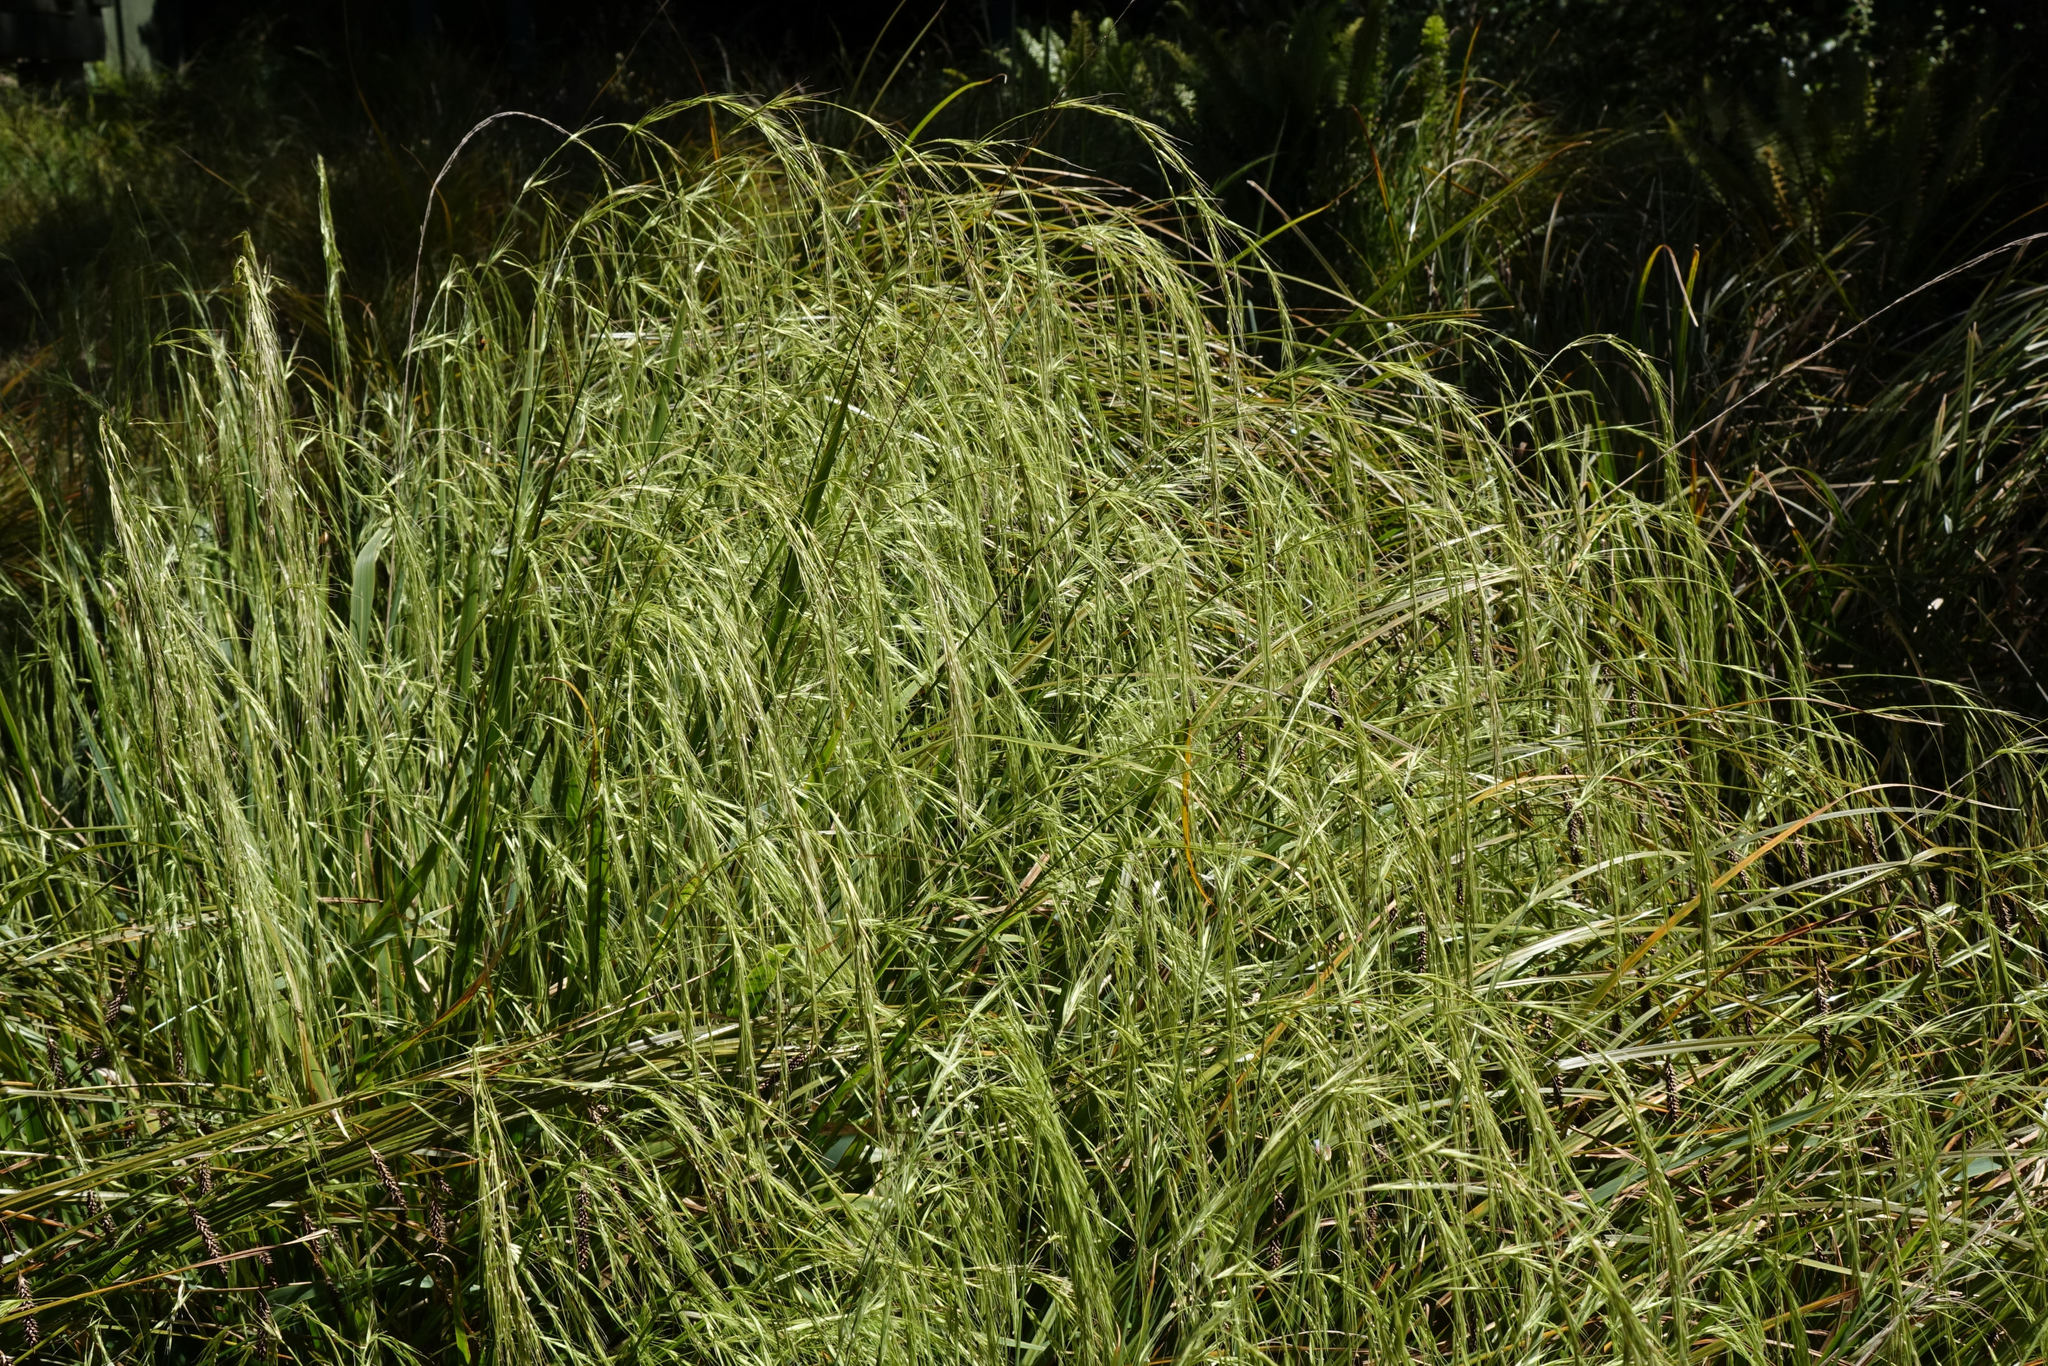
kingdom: Plantae
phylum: Tracheophyta
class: Liliopsida
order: Poales
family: Poaceae
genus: Ehrharta
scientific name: Ehrharta diplax
